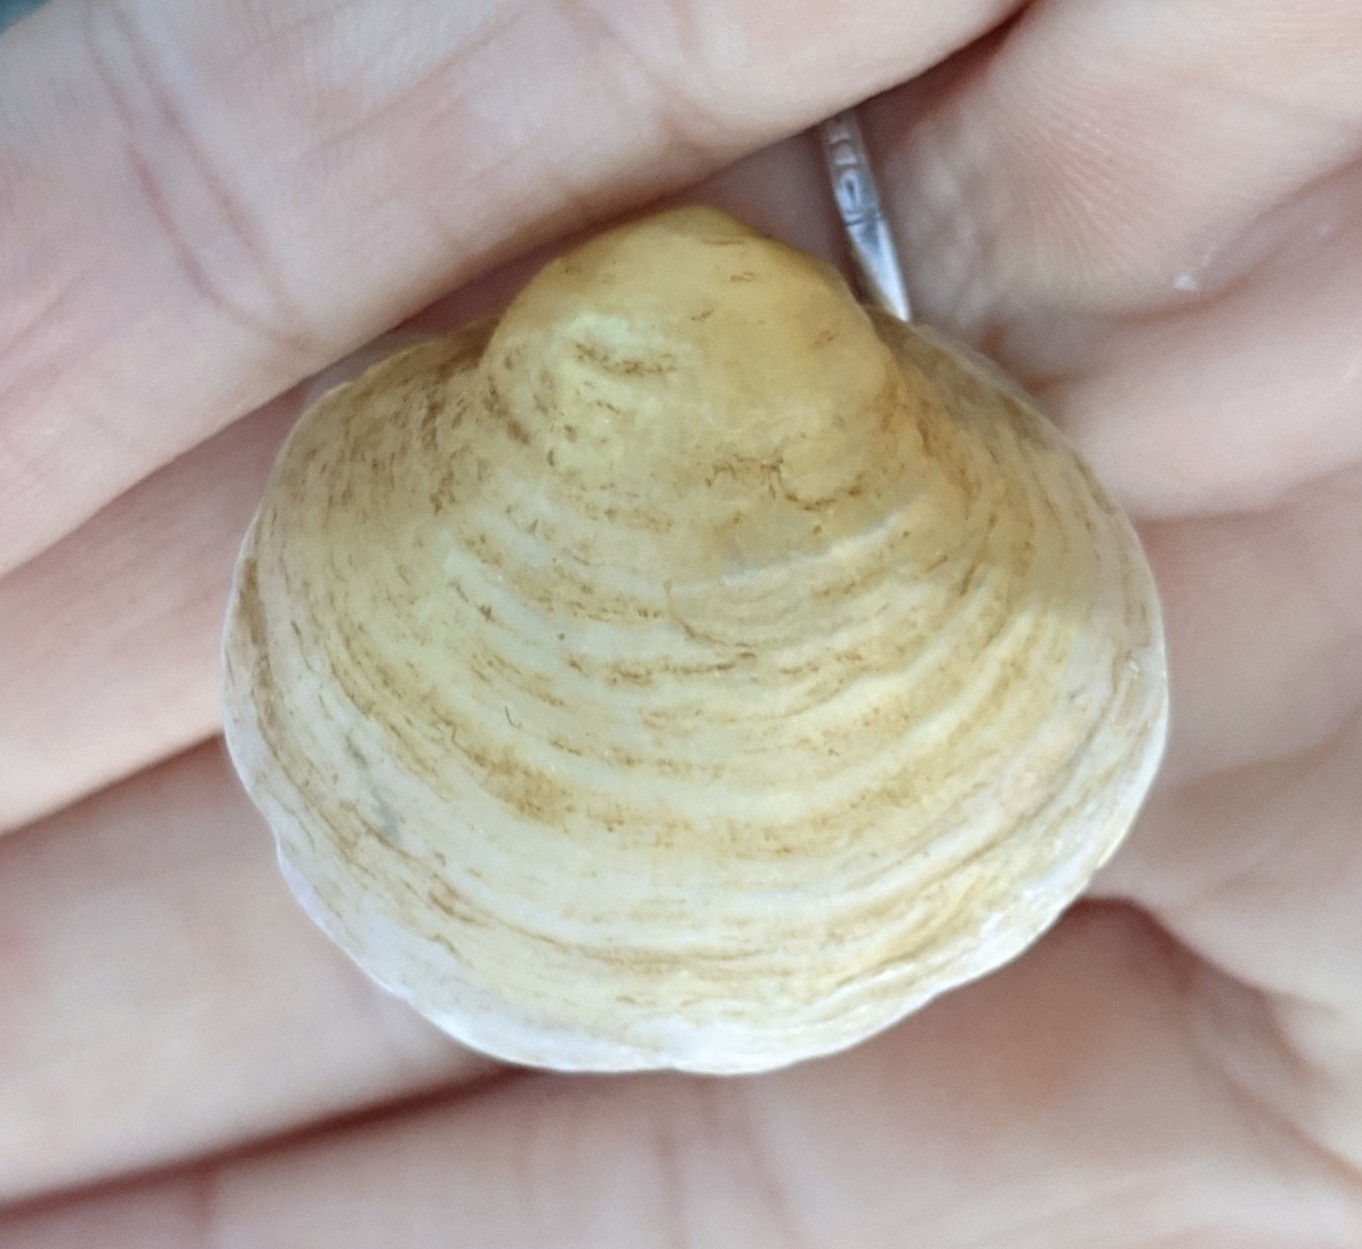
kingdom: Animalia
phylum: Mollusca
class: Bivalvia
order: Pectinida
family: Anomiidae
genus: Anomia
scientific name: Anomia simplex
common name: Common jingle shell
